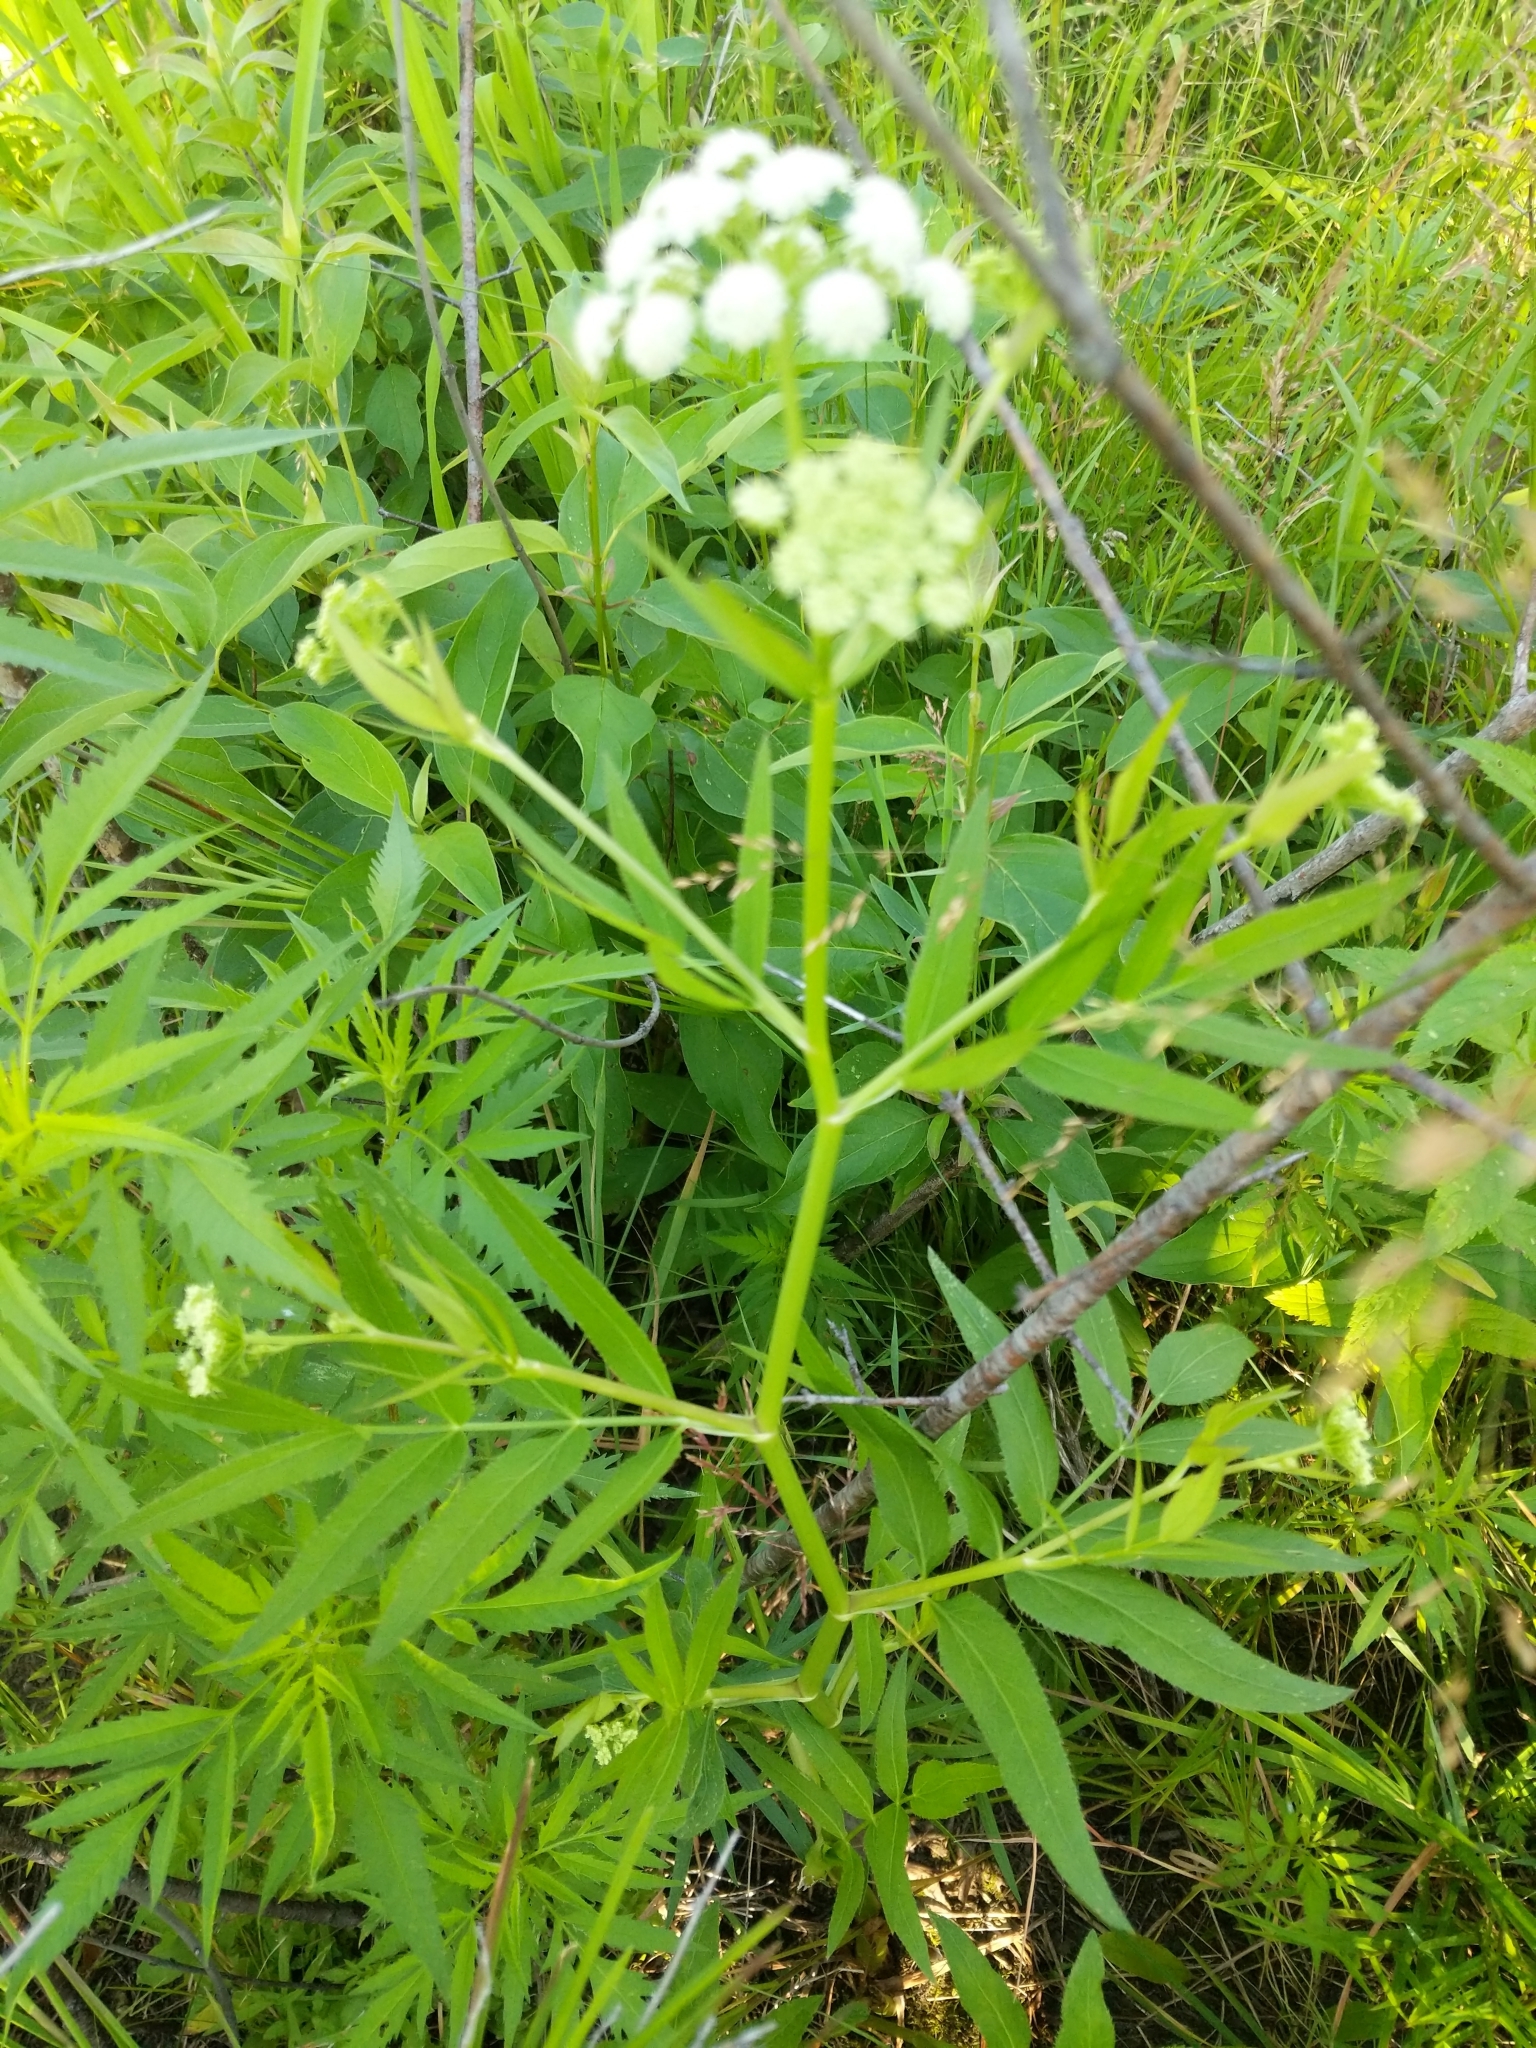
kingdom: Plantae
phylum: Tracheophyta
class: Magnoliopsida
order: Apiales
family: Apiaceae
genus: Sium
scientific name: Sium suave
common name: Hemlock water-parsnip
